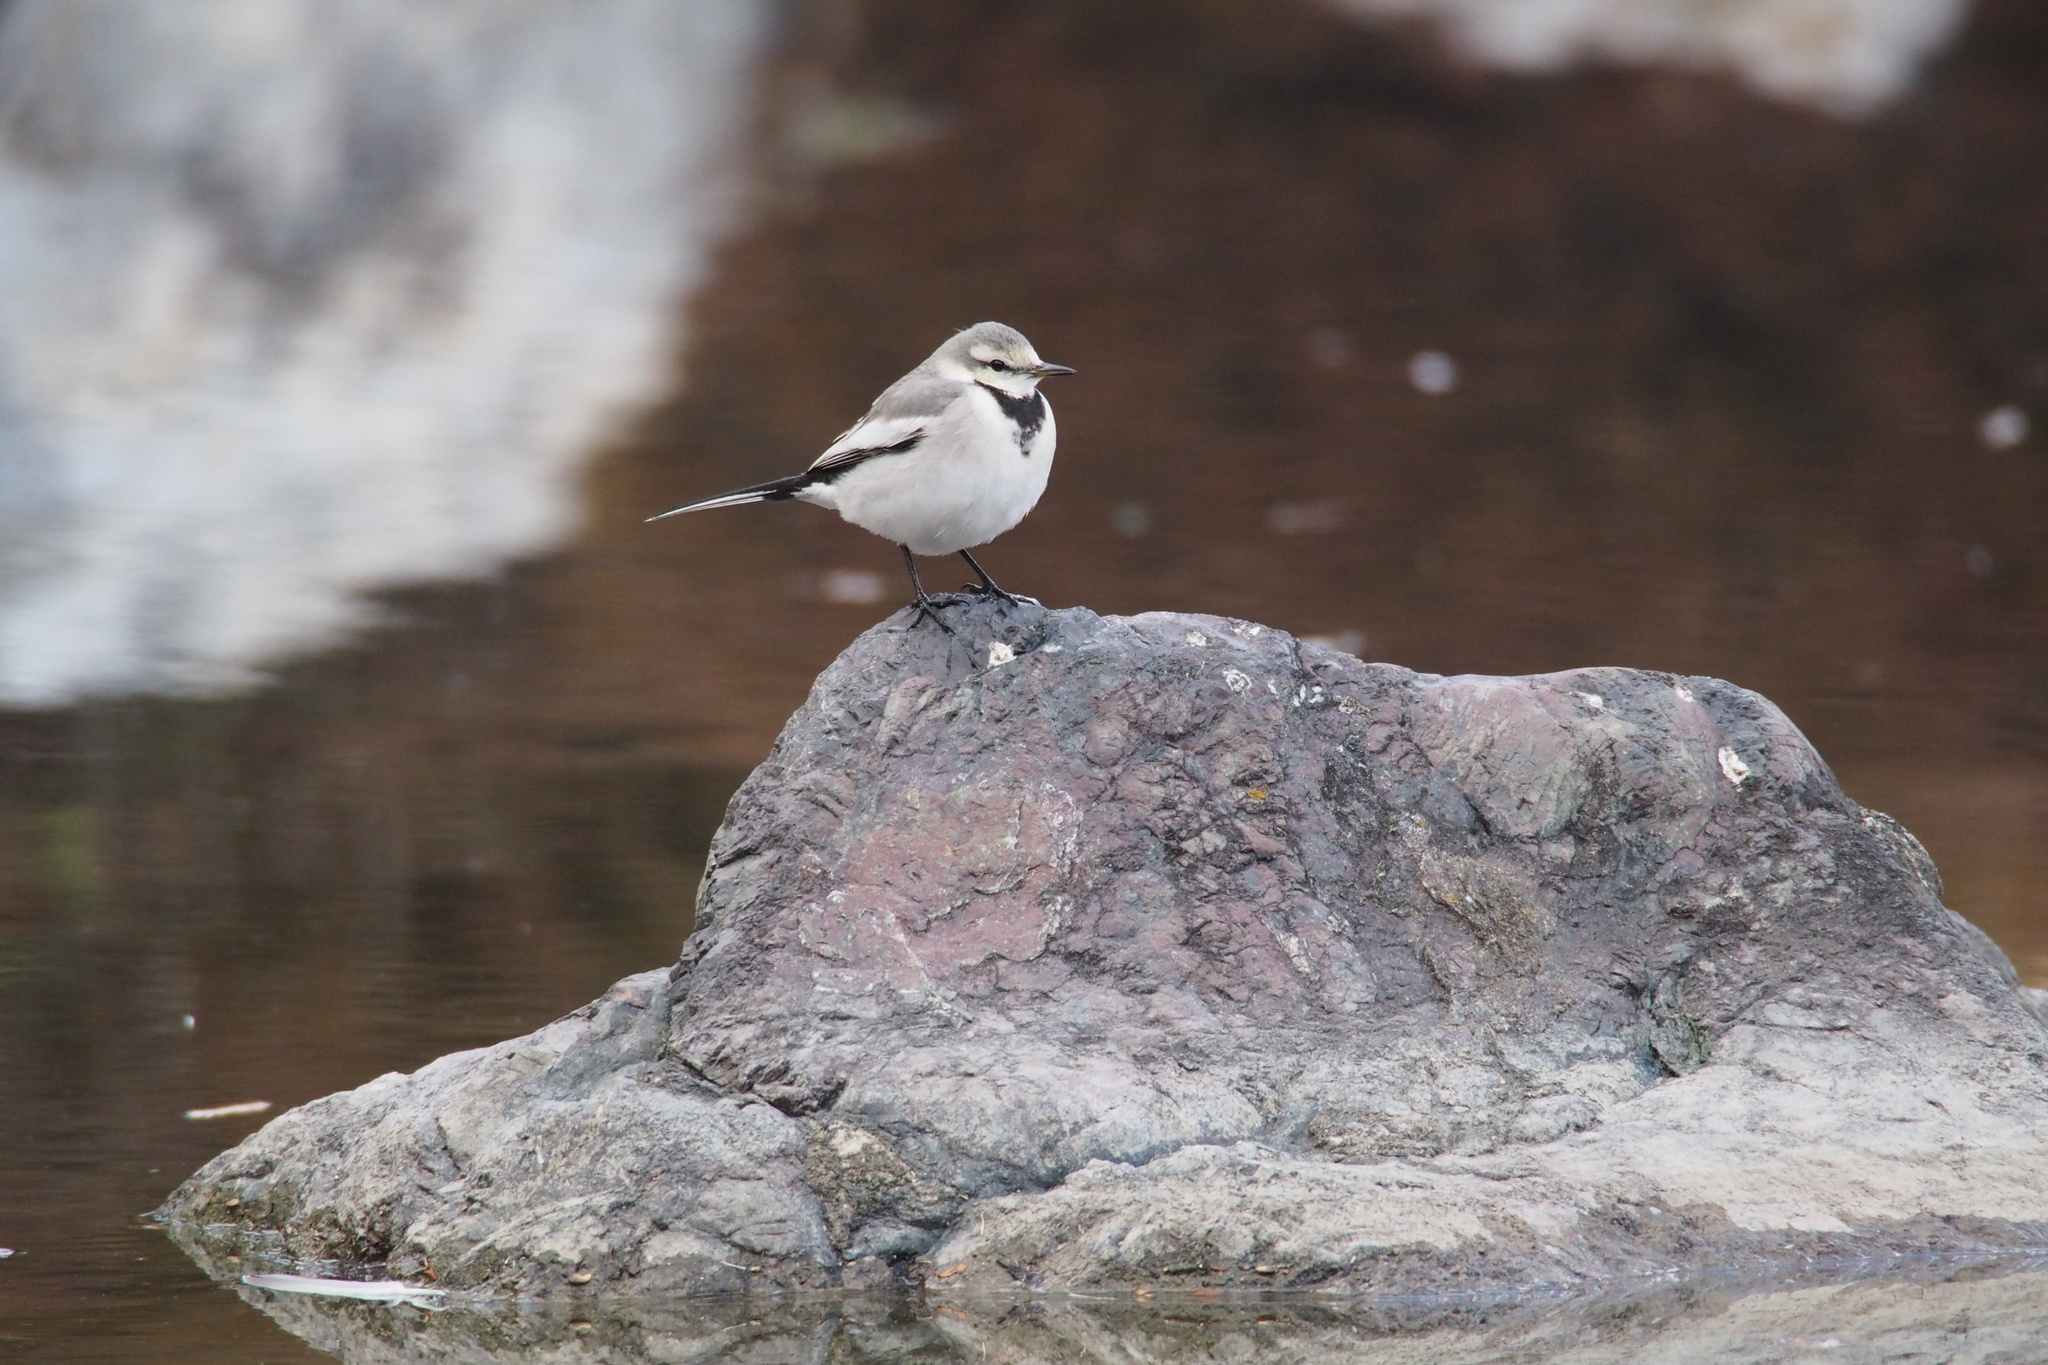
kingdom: Animalia
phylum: Chordata
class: Aves
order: Passeriformes
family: Motacillidae
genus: Motacilla
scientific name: Motacilla alba
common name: White wagtail
